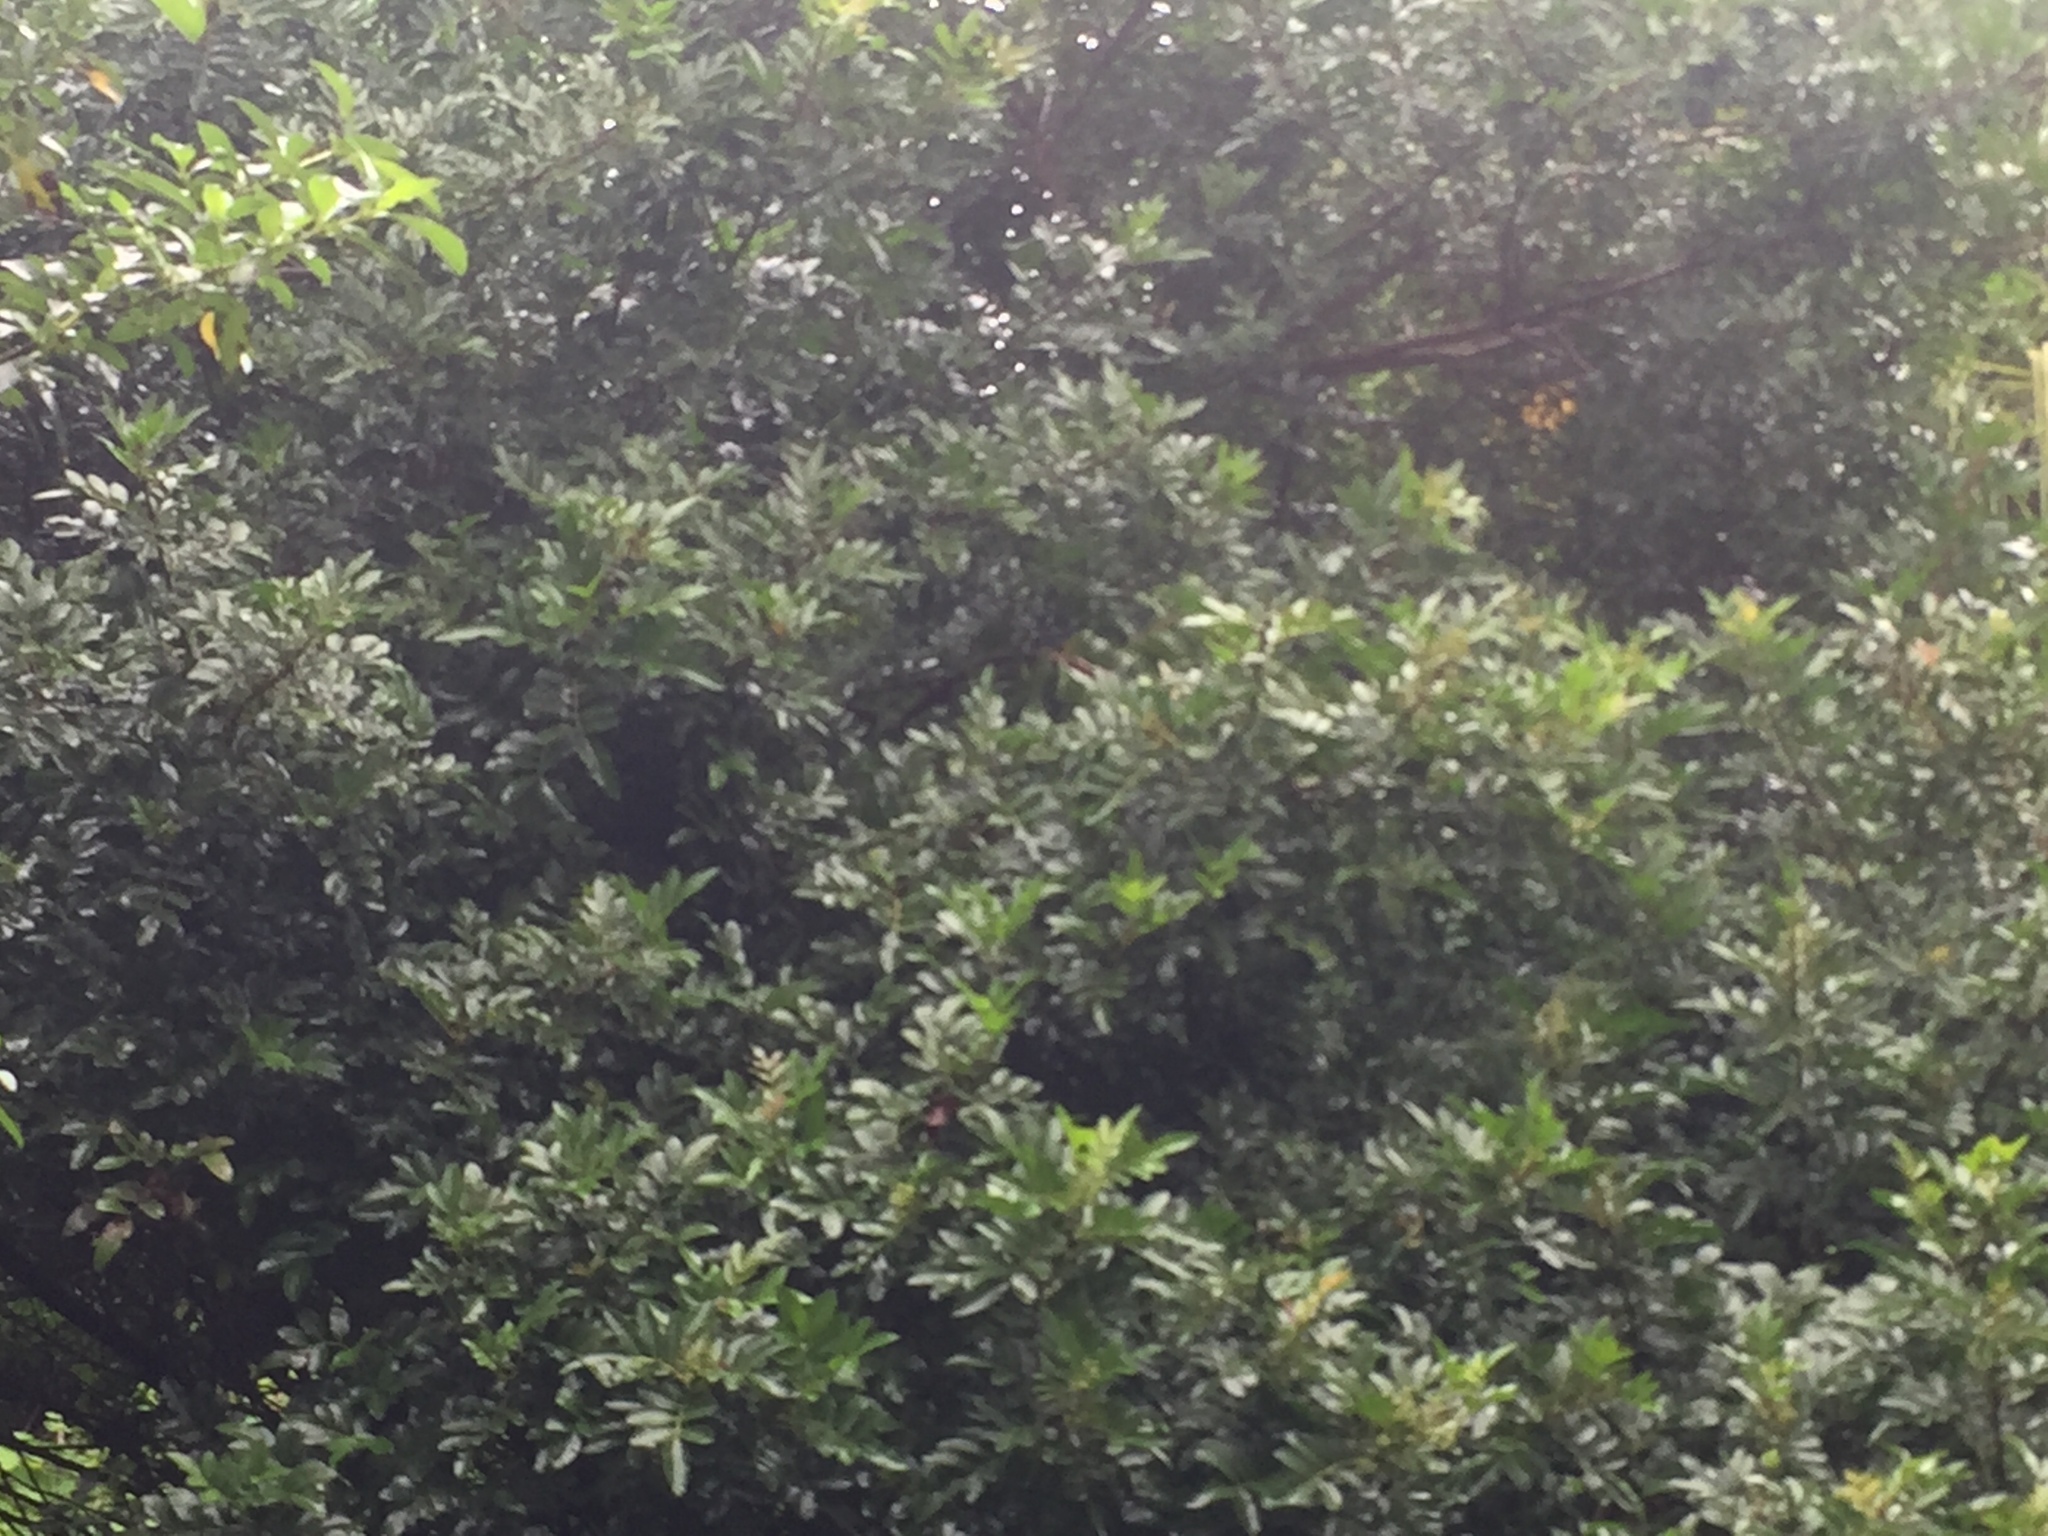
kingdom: Plantae
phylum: Tracheophyta
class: Magnoliopsida
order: Sapindales
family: Anacardiaceae
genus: Schinus
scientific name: Schinus terebinthifolia
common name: Brazilian peppertree
